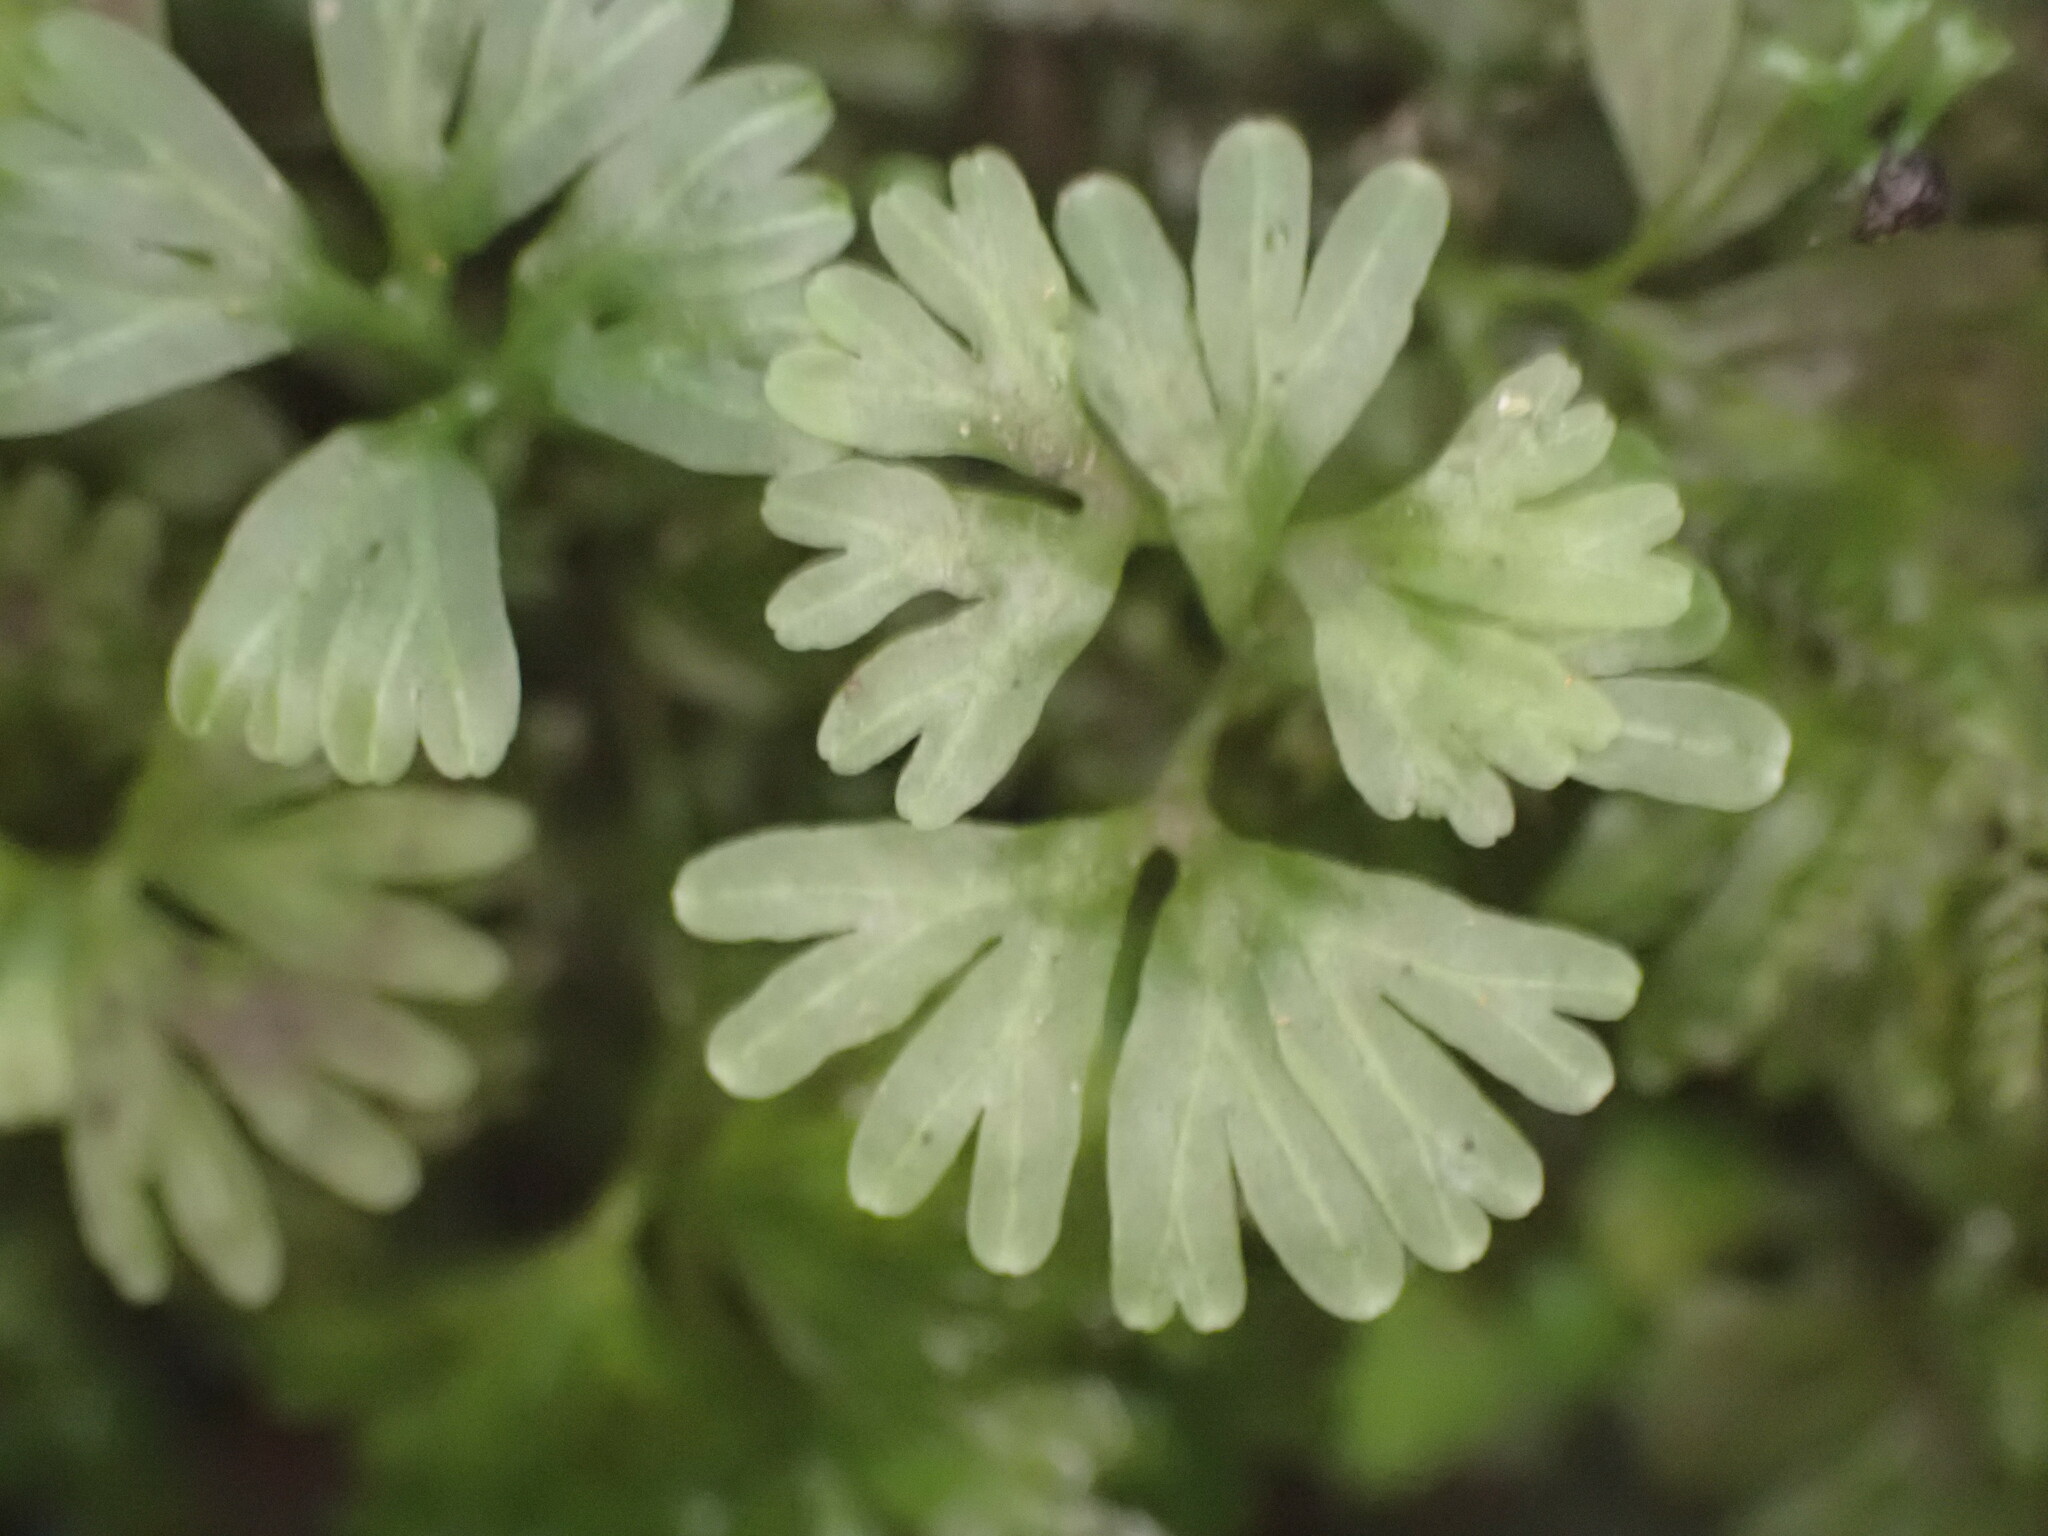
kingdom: Plantae
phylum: Marchantiophyta
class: Jungermanniopsida
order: Pallaviciniales
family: Hymenophytaceae
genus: Hymenophyton
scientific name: Hymenophyton flabellatum
